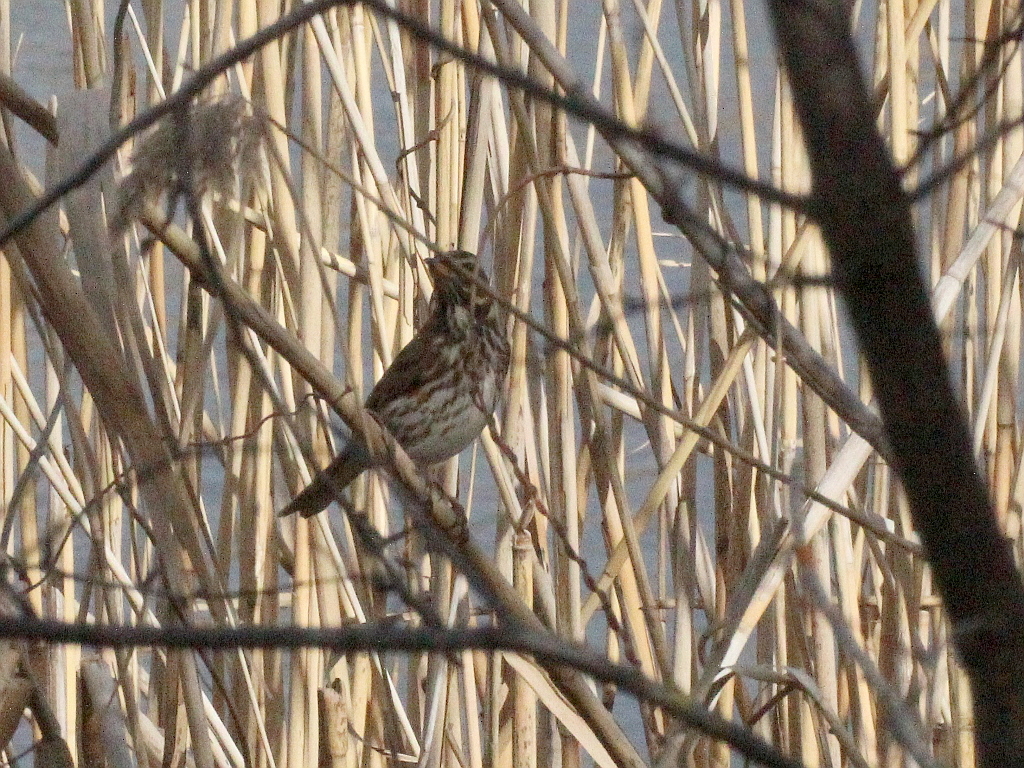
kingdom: Animalia
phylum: Chordata
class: Aves
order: Passeriformes
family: Turdidae
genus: Turdus
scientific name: Turdus iliacus
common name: Redwing
